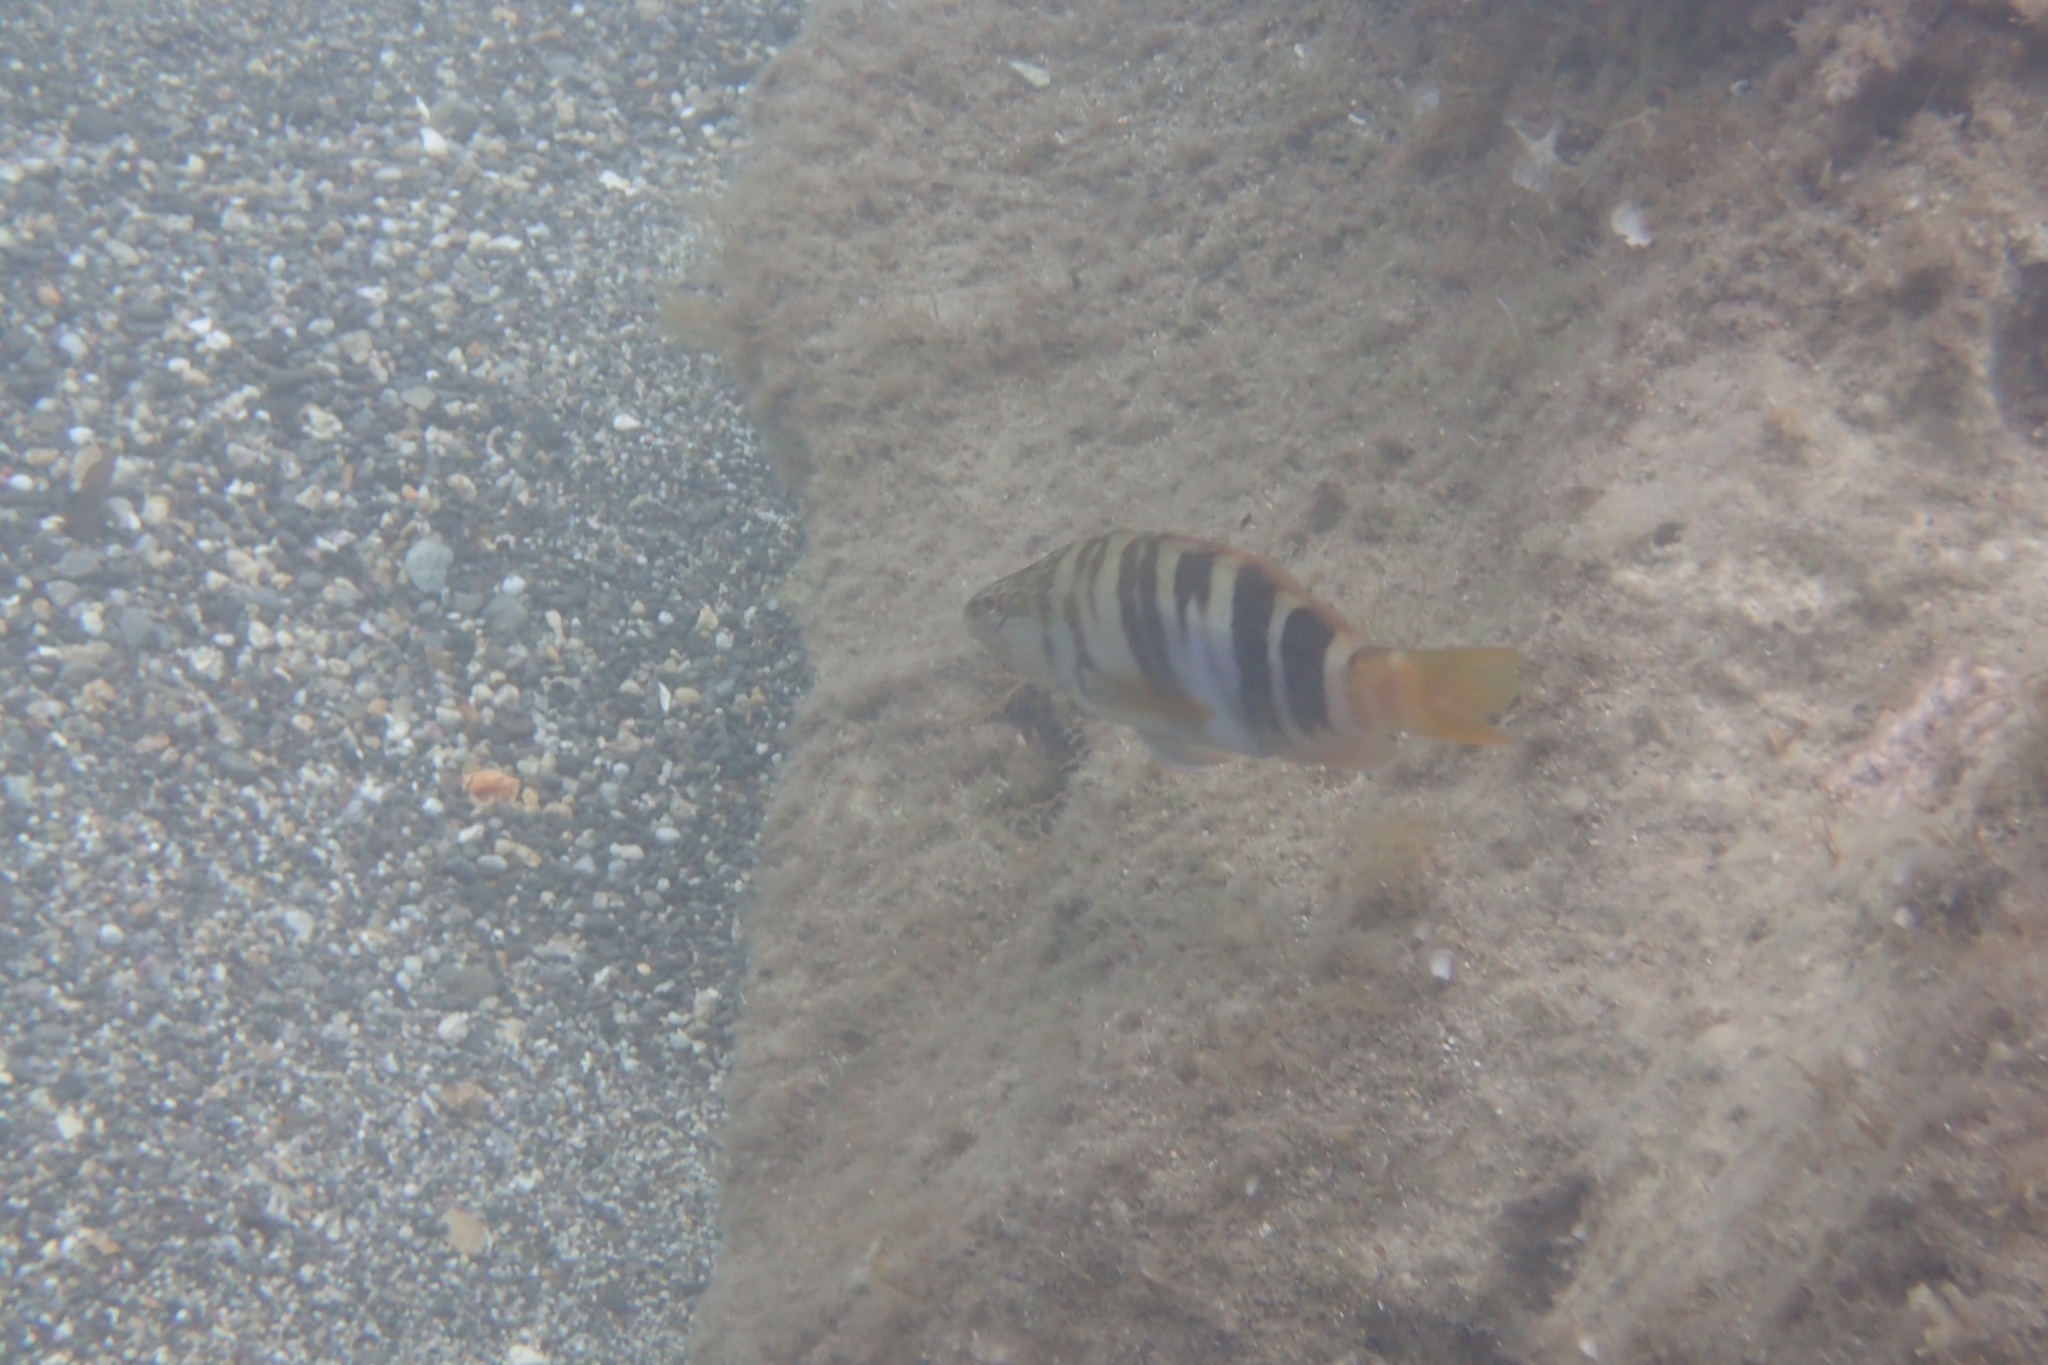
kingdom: Animalia
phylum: Chordata
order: Perciformes
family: Serranidae
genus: Serranus
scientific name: Serranus scriba
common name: Painted comber
